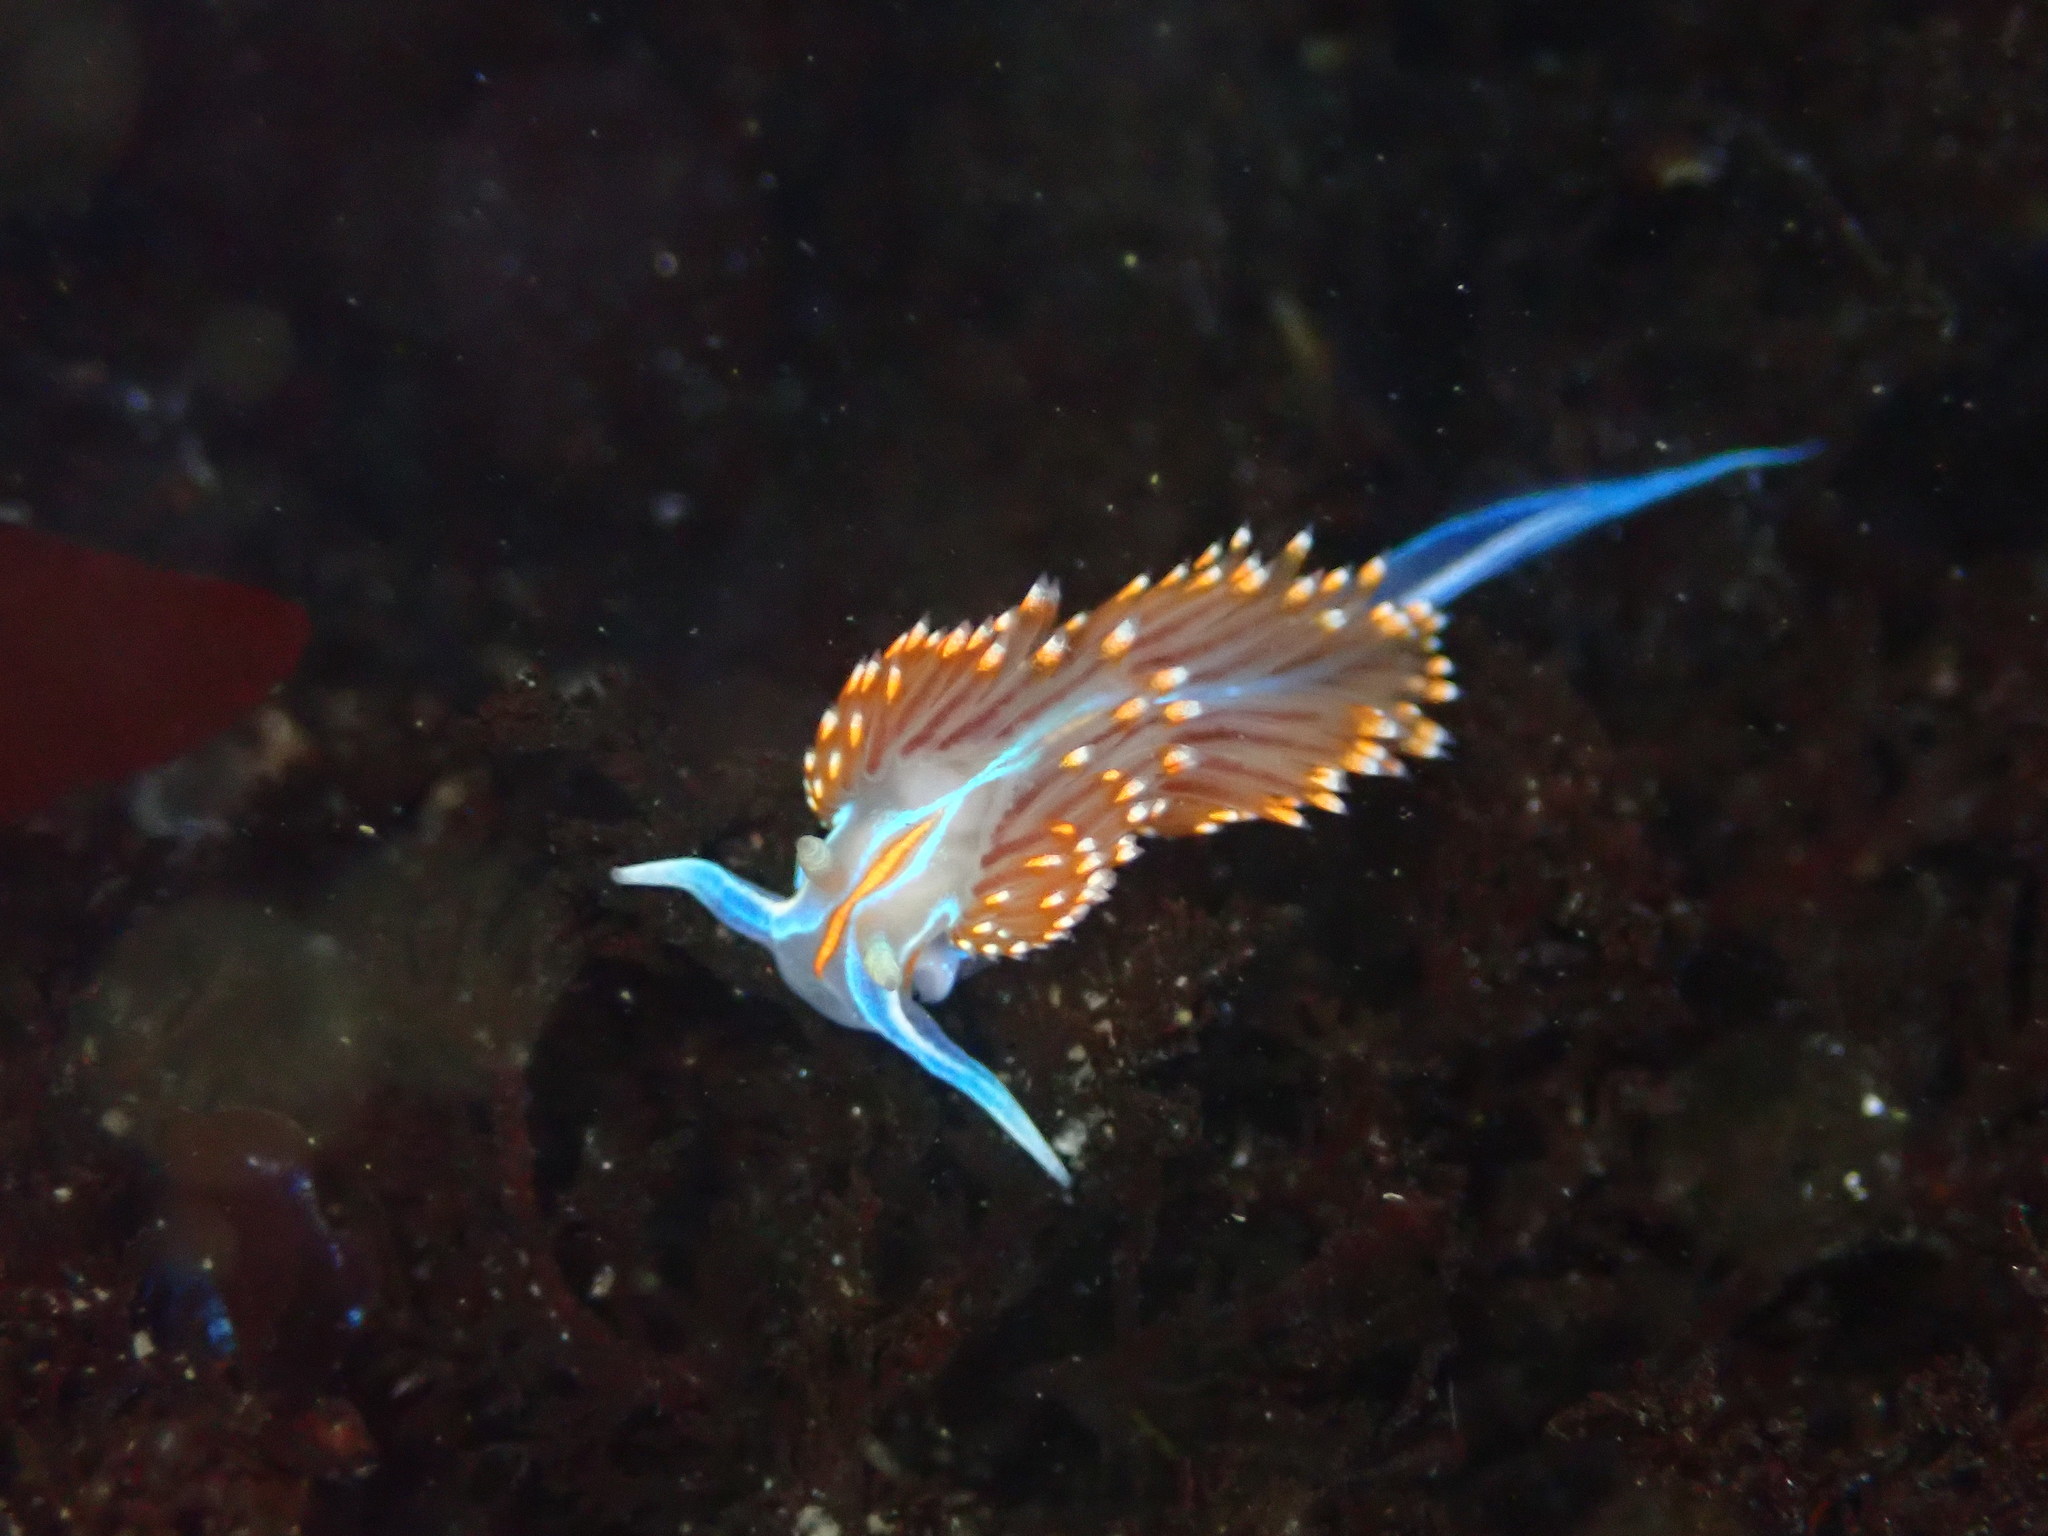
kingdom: Animalia
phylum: Mollusca
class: Gastropoda
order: Nudibranchia
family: Myrrhinidae
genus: Hermissenda
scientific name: Hermissenda opalescens
